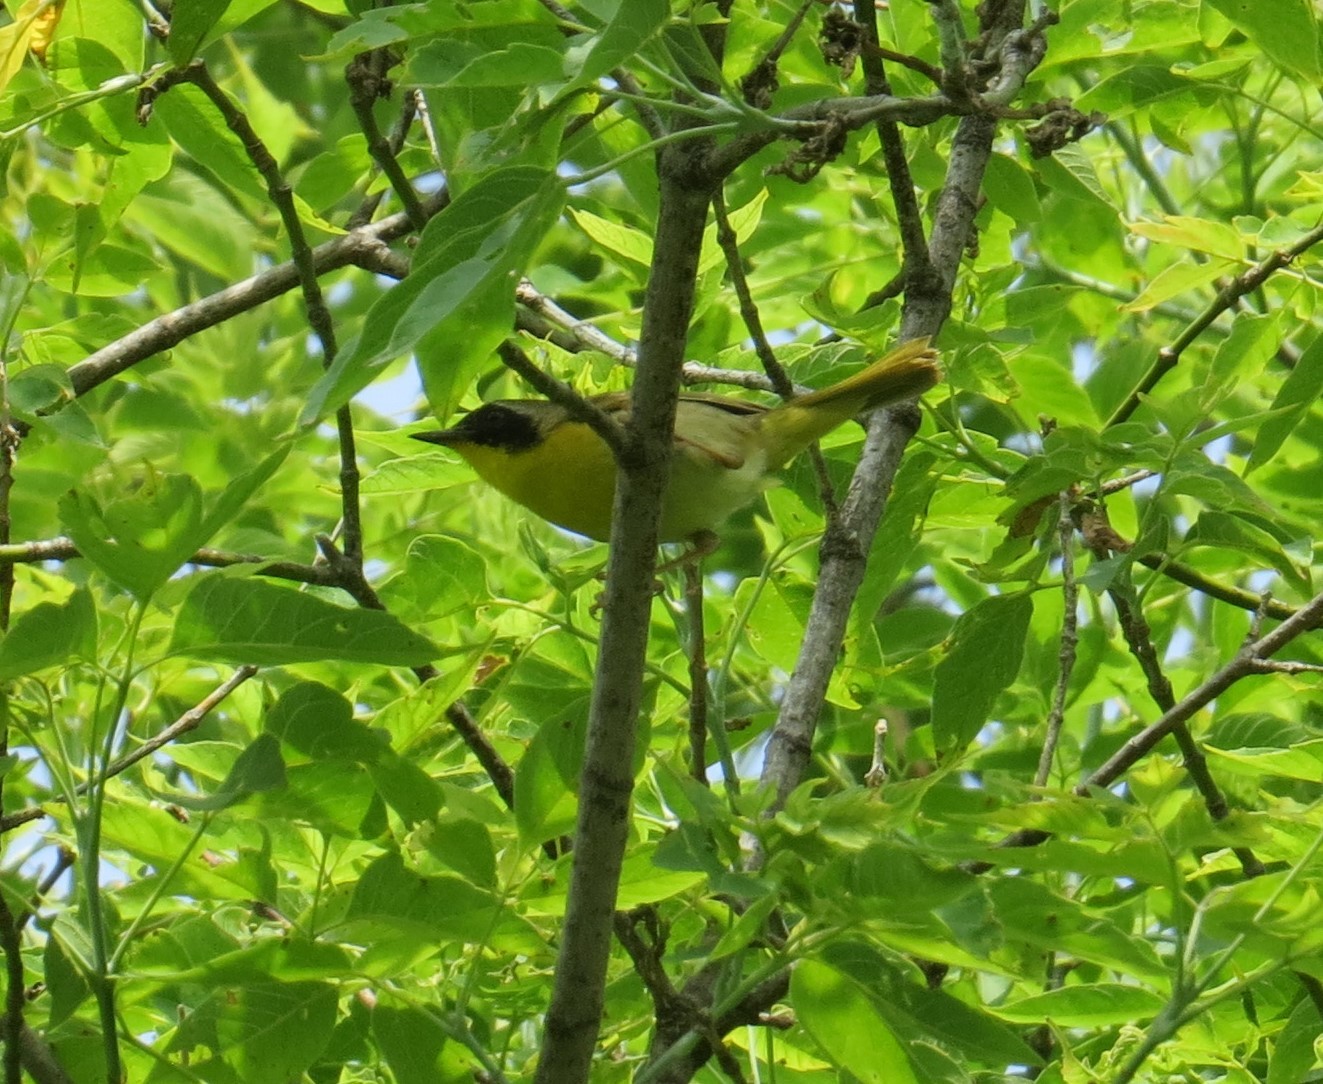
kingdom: Animalia
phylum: Chordata
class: Aves
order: Passeriformes
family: Parulidae
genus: Geothlypis
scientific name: Geothlypis trichas
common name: Common yellowthroat
